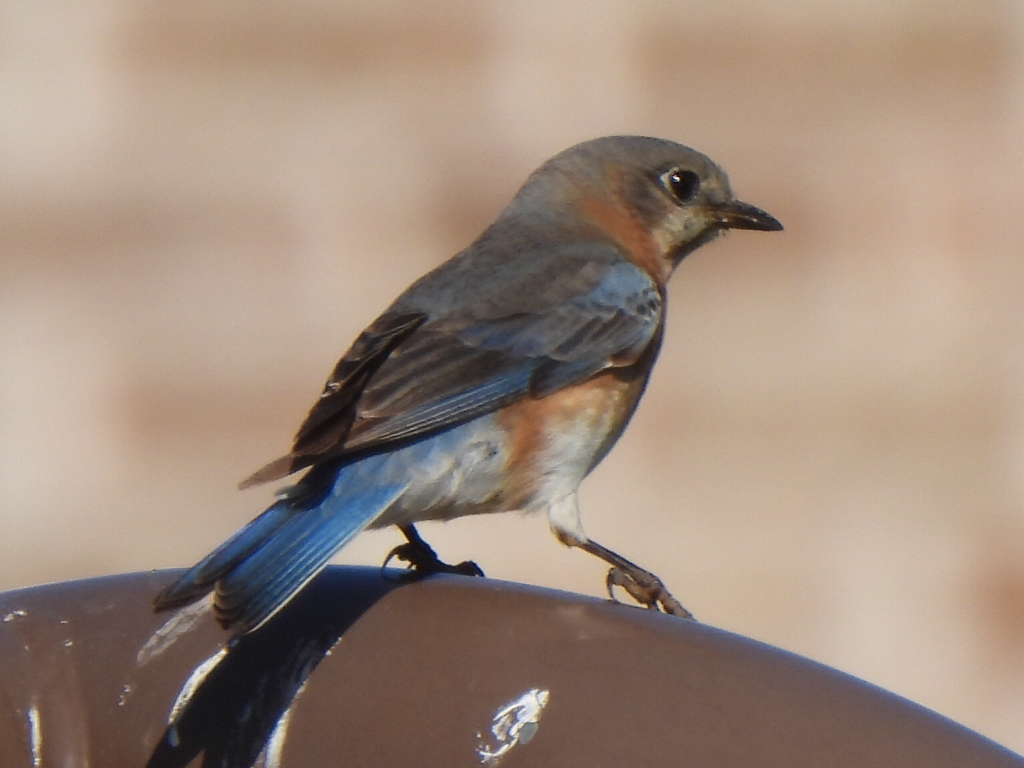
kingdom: Animalia
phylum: Chordata
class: Aves
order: Passeriformes
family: Turdidae
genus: Sialia
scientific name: Sialia sialis
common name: Eastern bluebird
